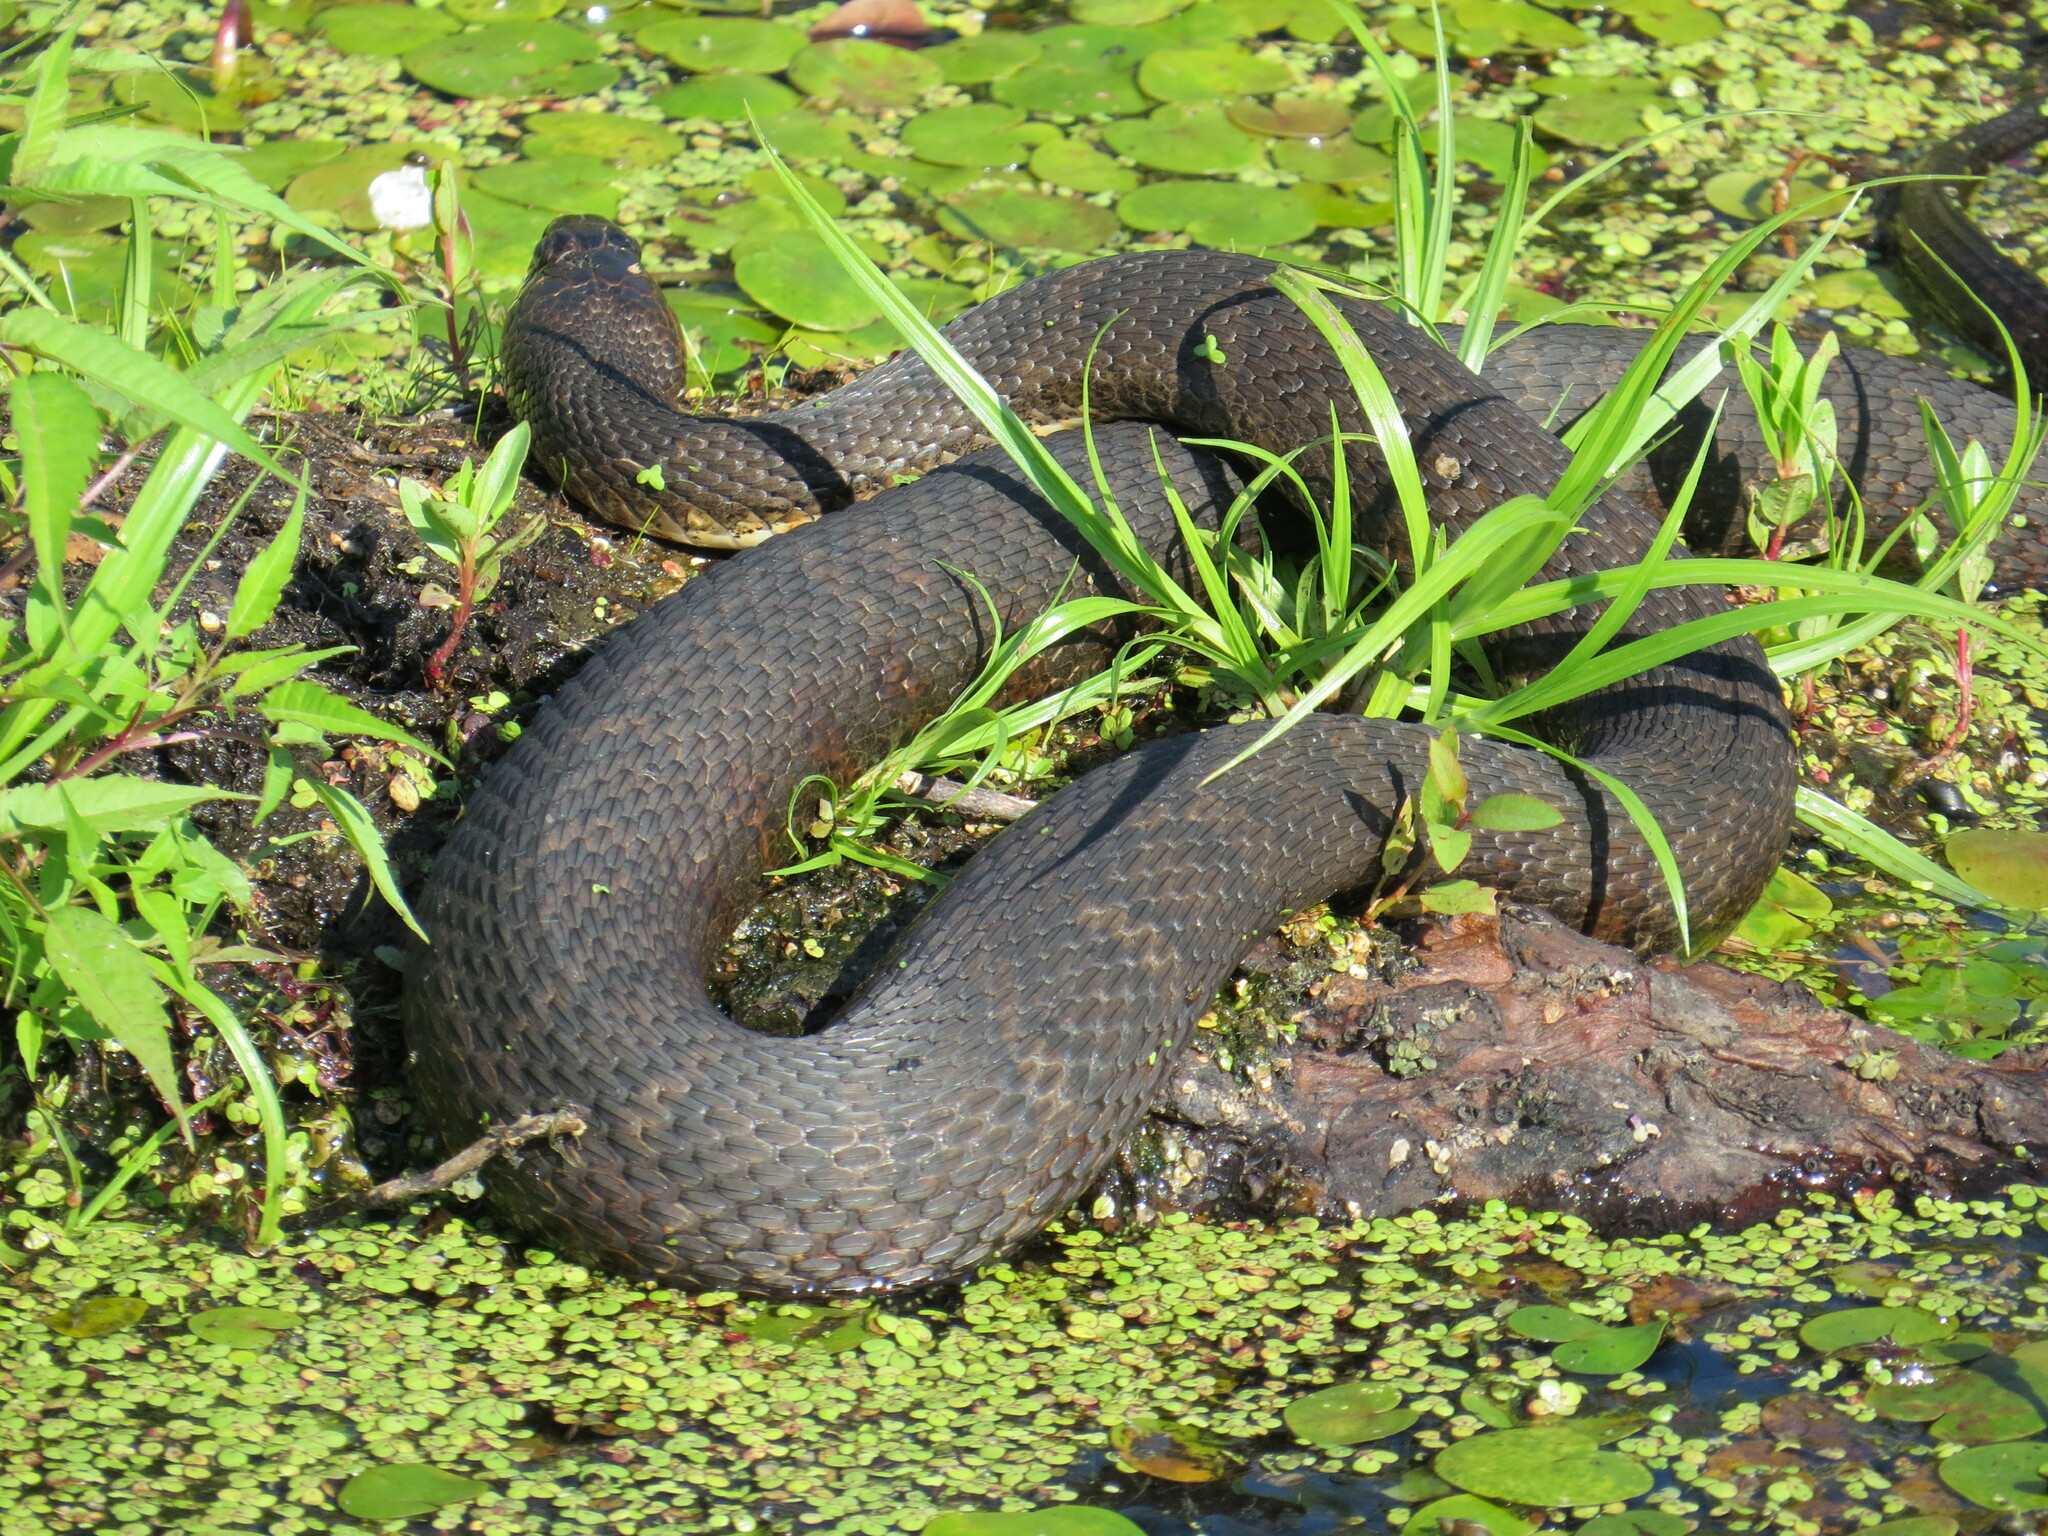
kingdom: Animalia
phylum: Chordata
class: Squamata
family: Colubridae
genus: Nerodia
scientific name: Nerodia sipedon
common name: Northern water snake
